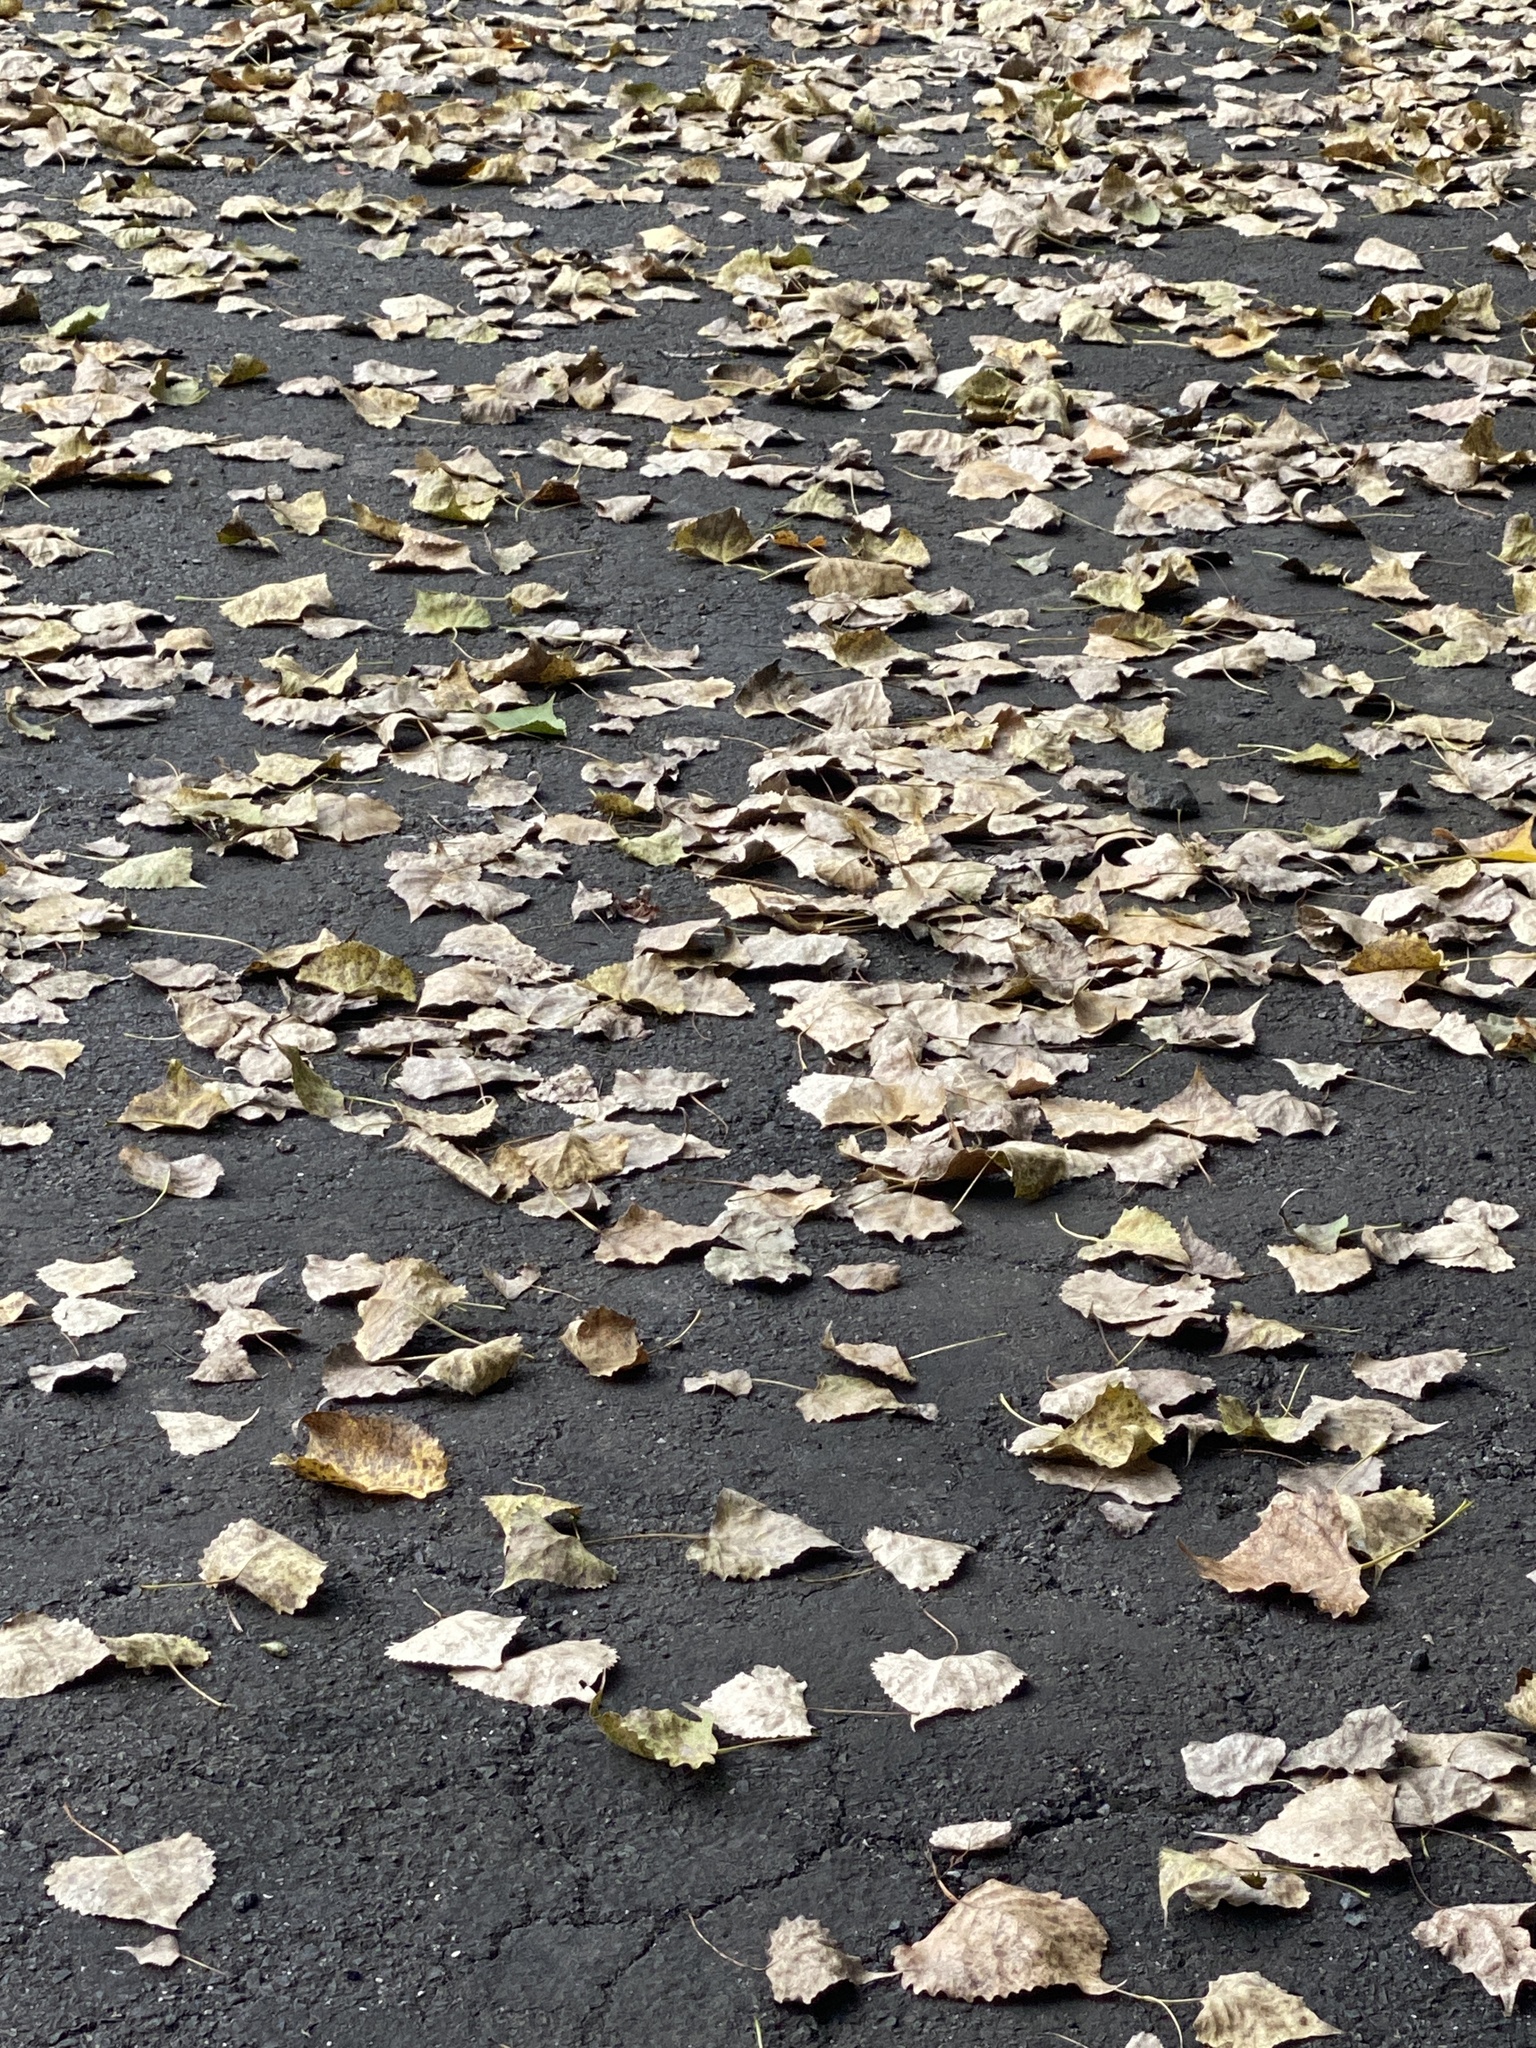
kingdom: Plantae
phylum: Tracheophyta
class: Magnoliopsida
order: Malpighiales
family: Salicaceae
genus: Populus
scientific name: Populus deltoides
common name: Eastern cottonwood
